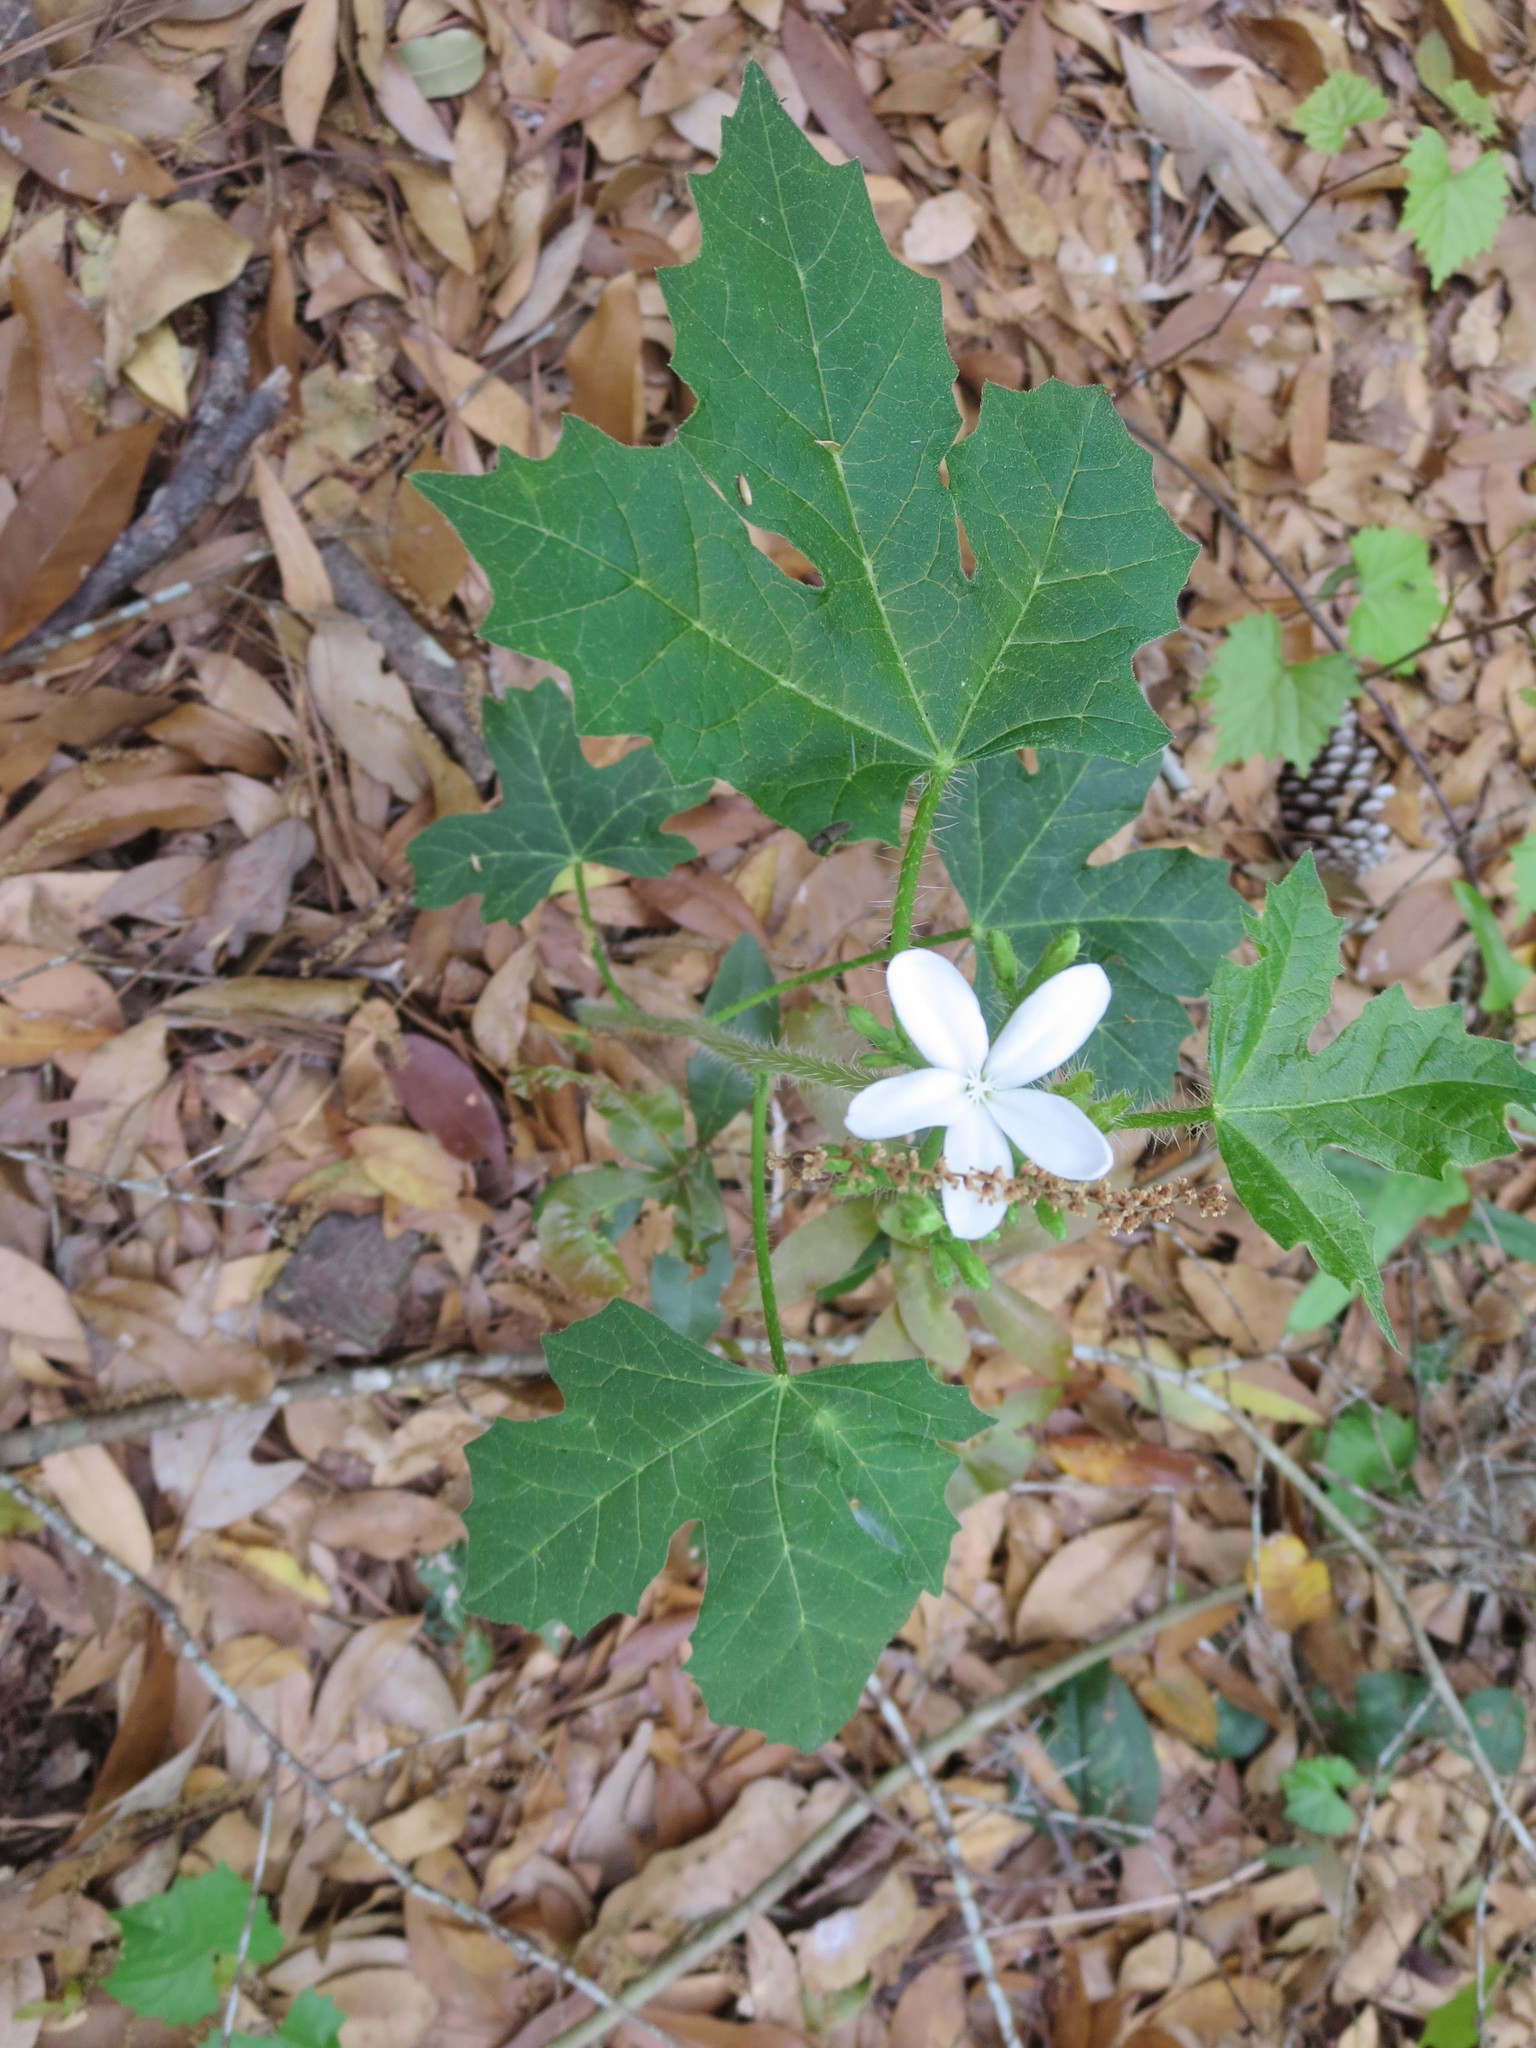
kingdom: Plantae
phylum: Tracheophyta
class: Magnoliopsida
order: Malpighiales
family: Euphorbiaceae
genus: Cnidoscolus
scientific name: Cnidoscolus stimulosus
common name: Bull-nettle
